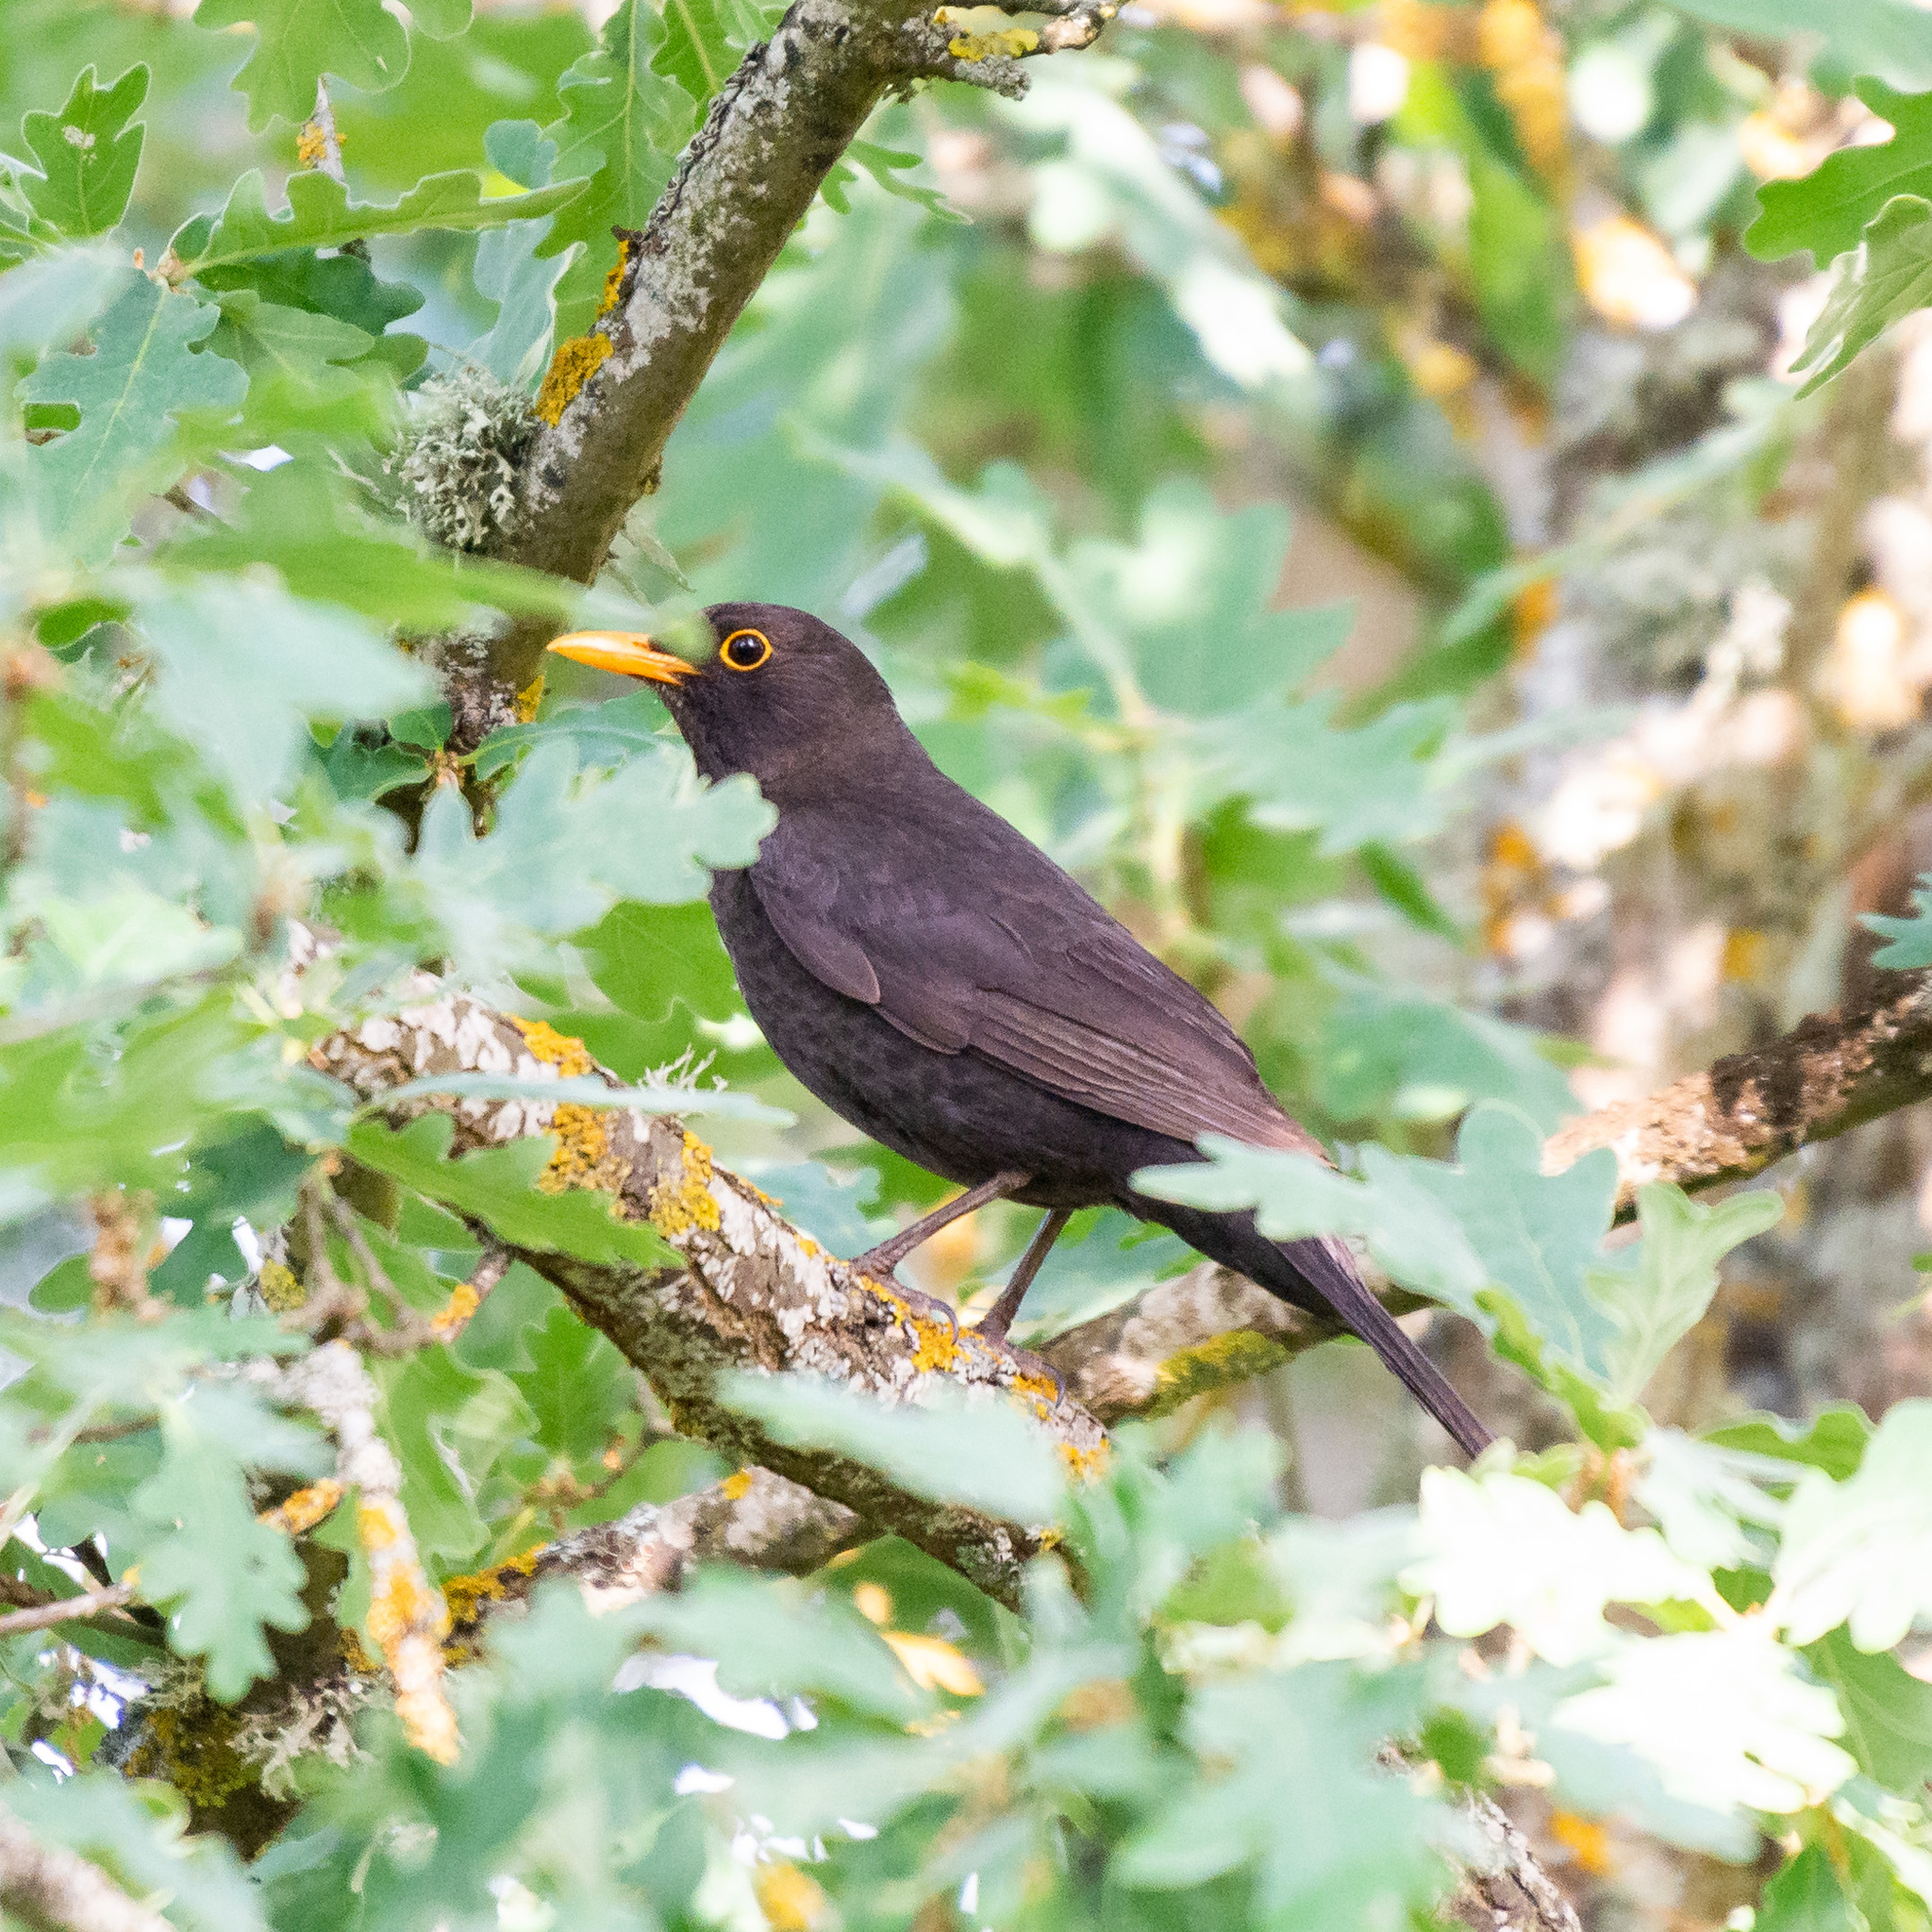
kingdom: Animalia
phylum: Chordata
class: Aves
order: Passeriformes
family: Turdidae
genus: Turdus
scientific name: Turdus merula
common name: Common blackbird
